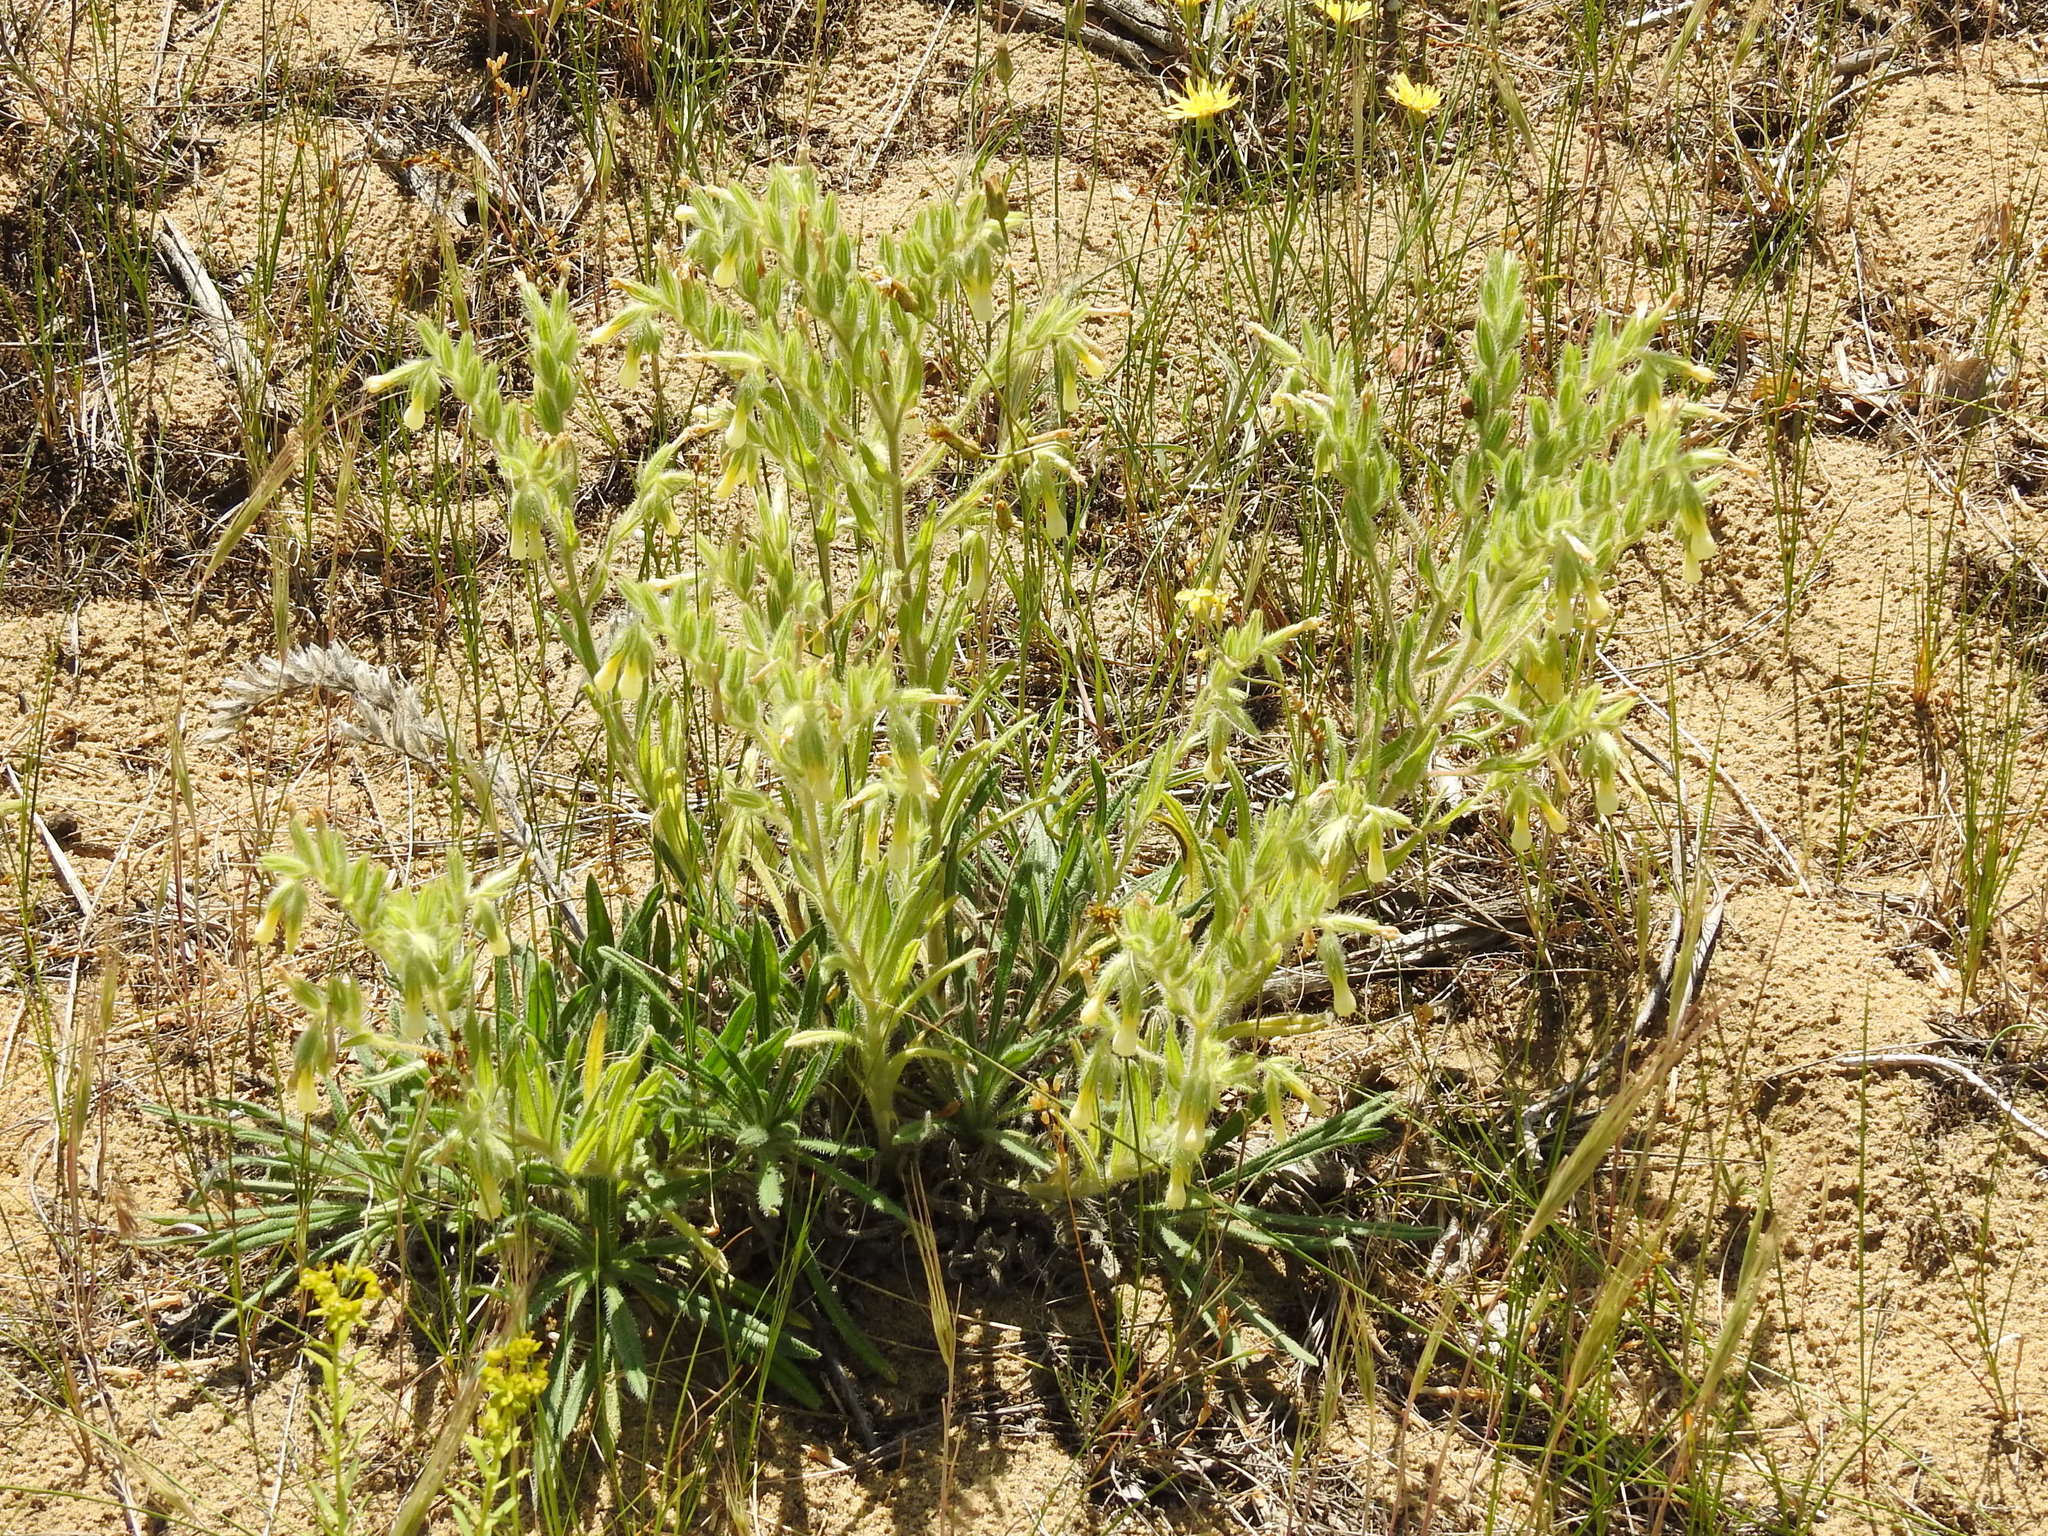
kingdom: Plantae
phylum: Tracheophyta
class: Magnoliopsida
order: Boraginales
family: Boraginaceae
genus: Onosma
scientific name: Onosma setosa
